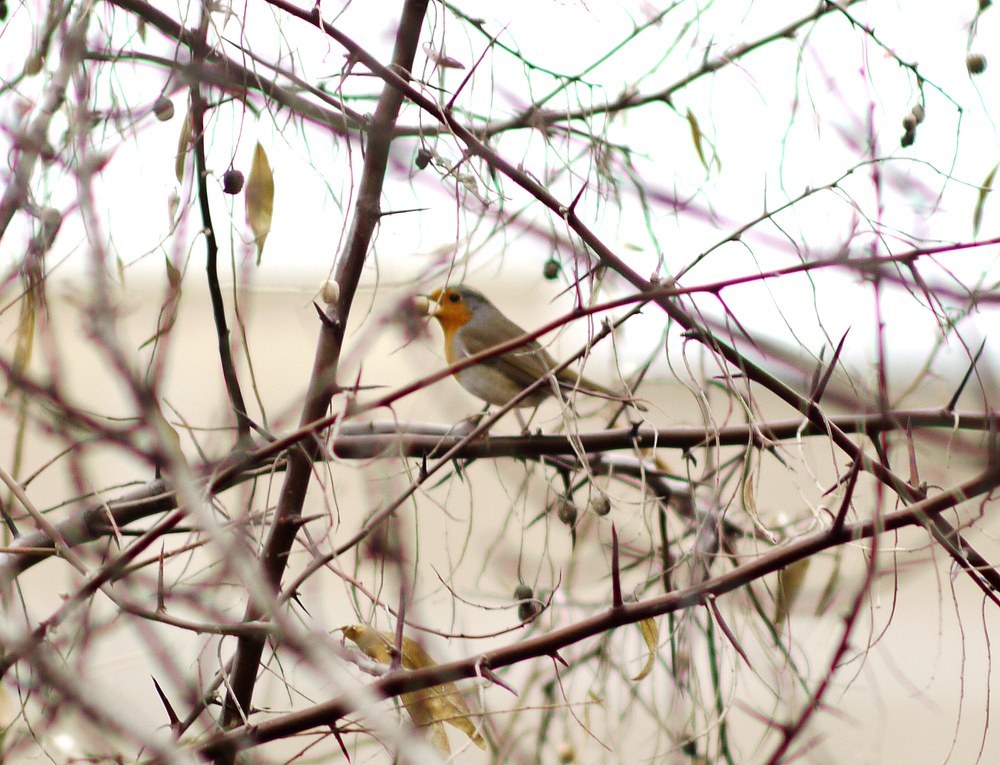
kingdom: Animalia
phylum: Chordata
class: Aves
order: Passeriformes
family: Muscicapidae
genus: Erithacus
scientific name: Erithacus rubecula
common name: European robin
